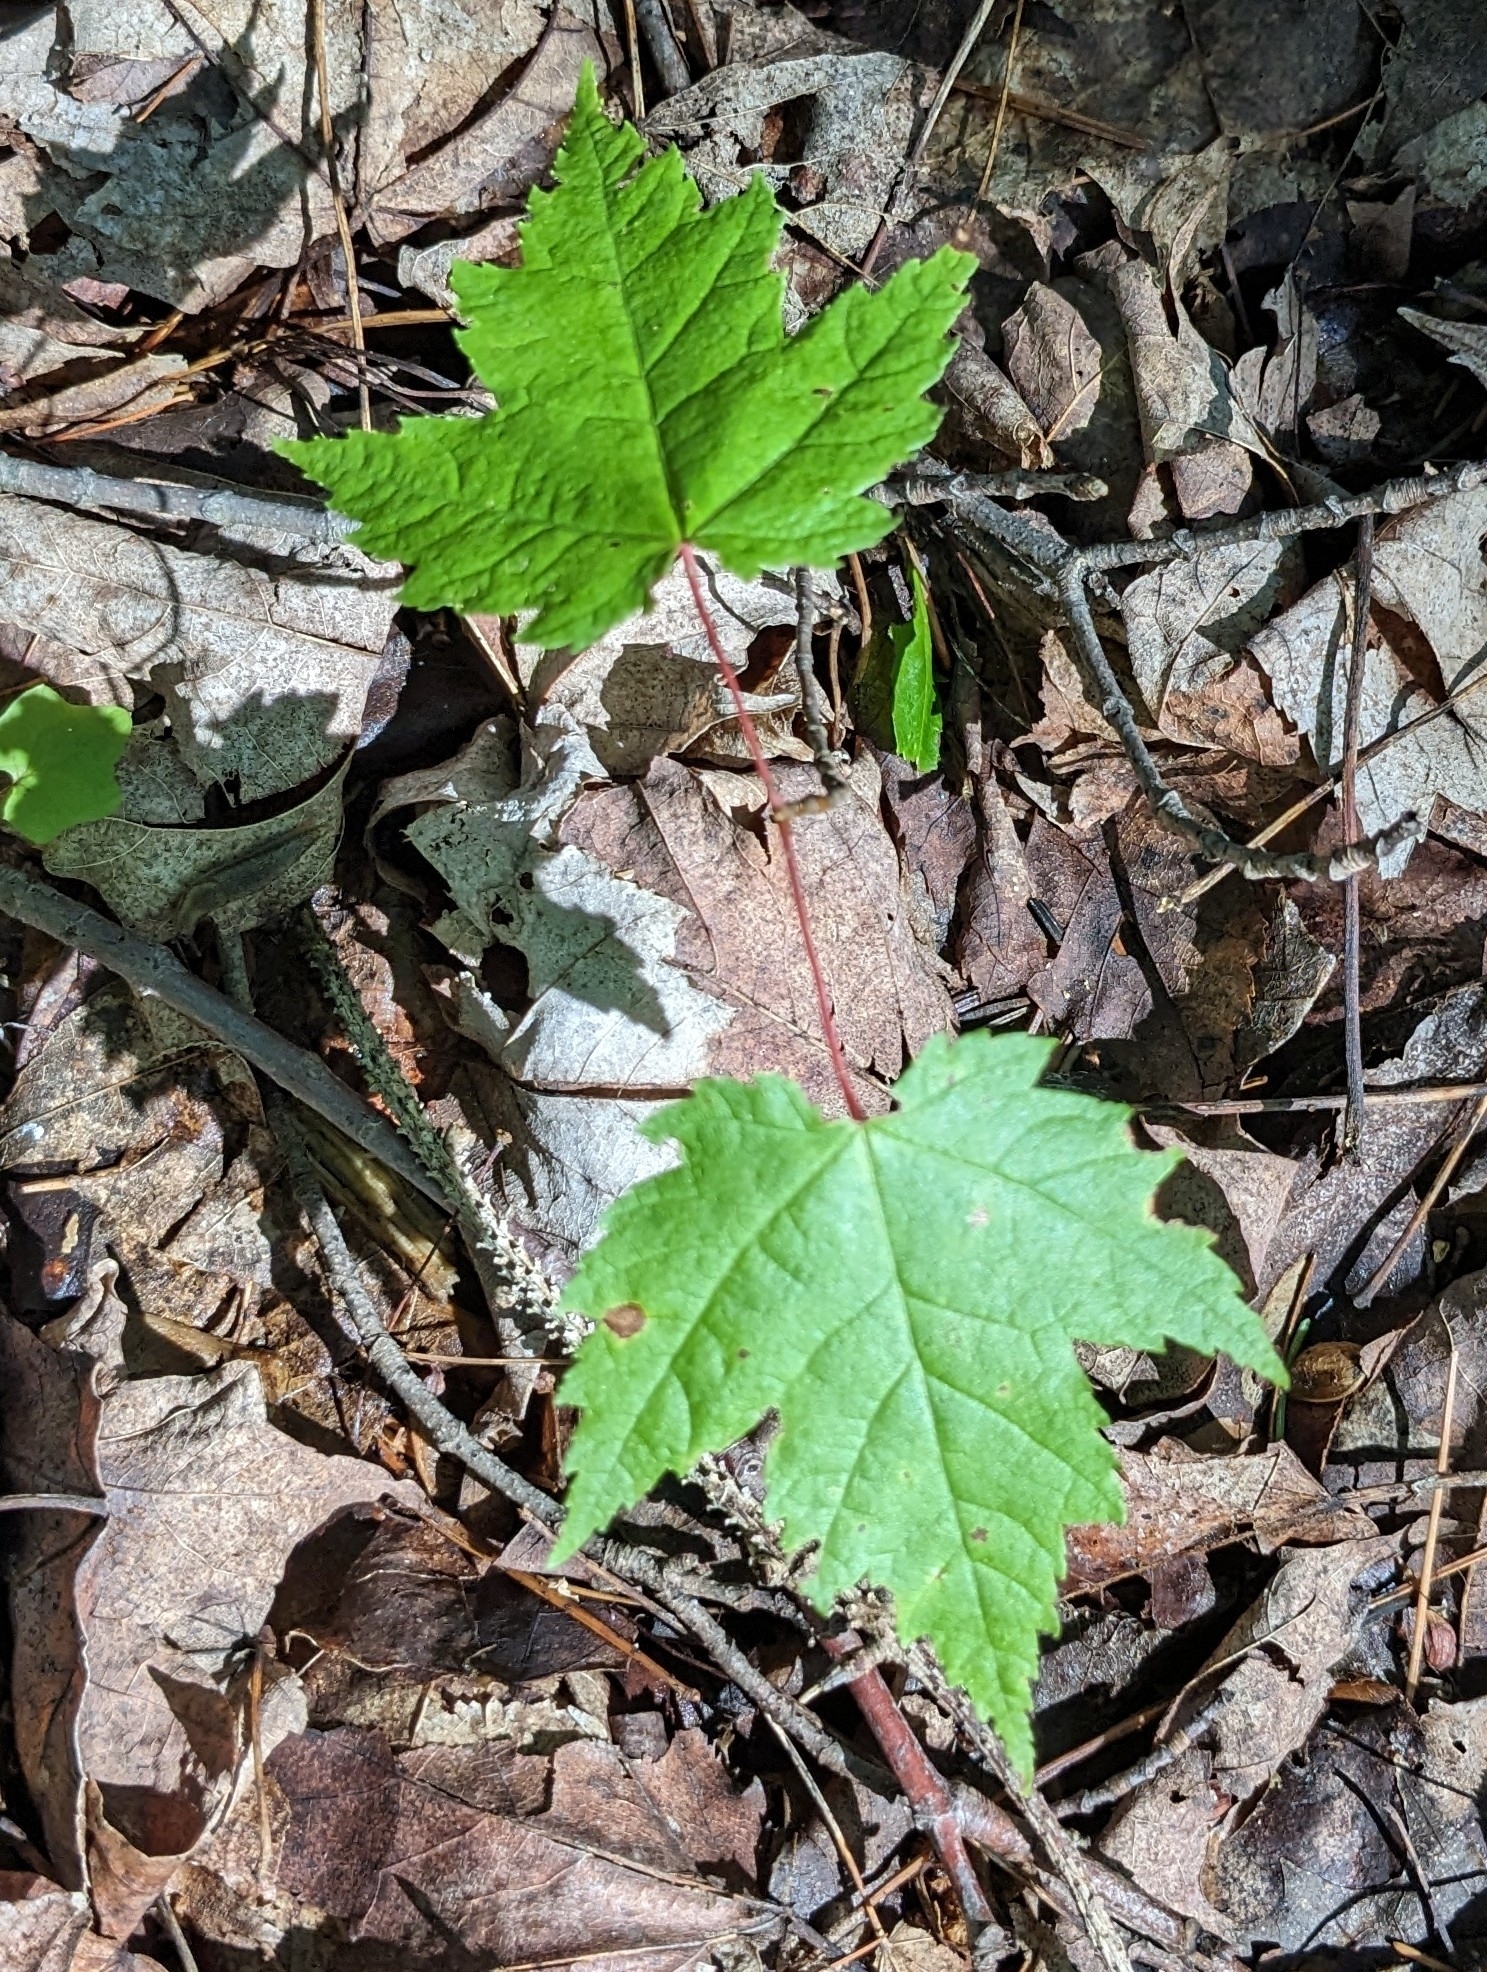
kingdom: Plantae
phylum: Tracheophyta
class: Magnoliopsida
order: Sapindales
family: Sapindaceae
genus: Acer
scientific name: Acer rubrum
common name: Red maple
